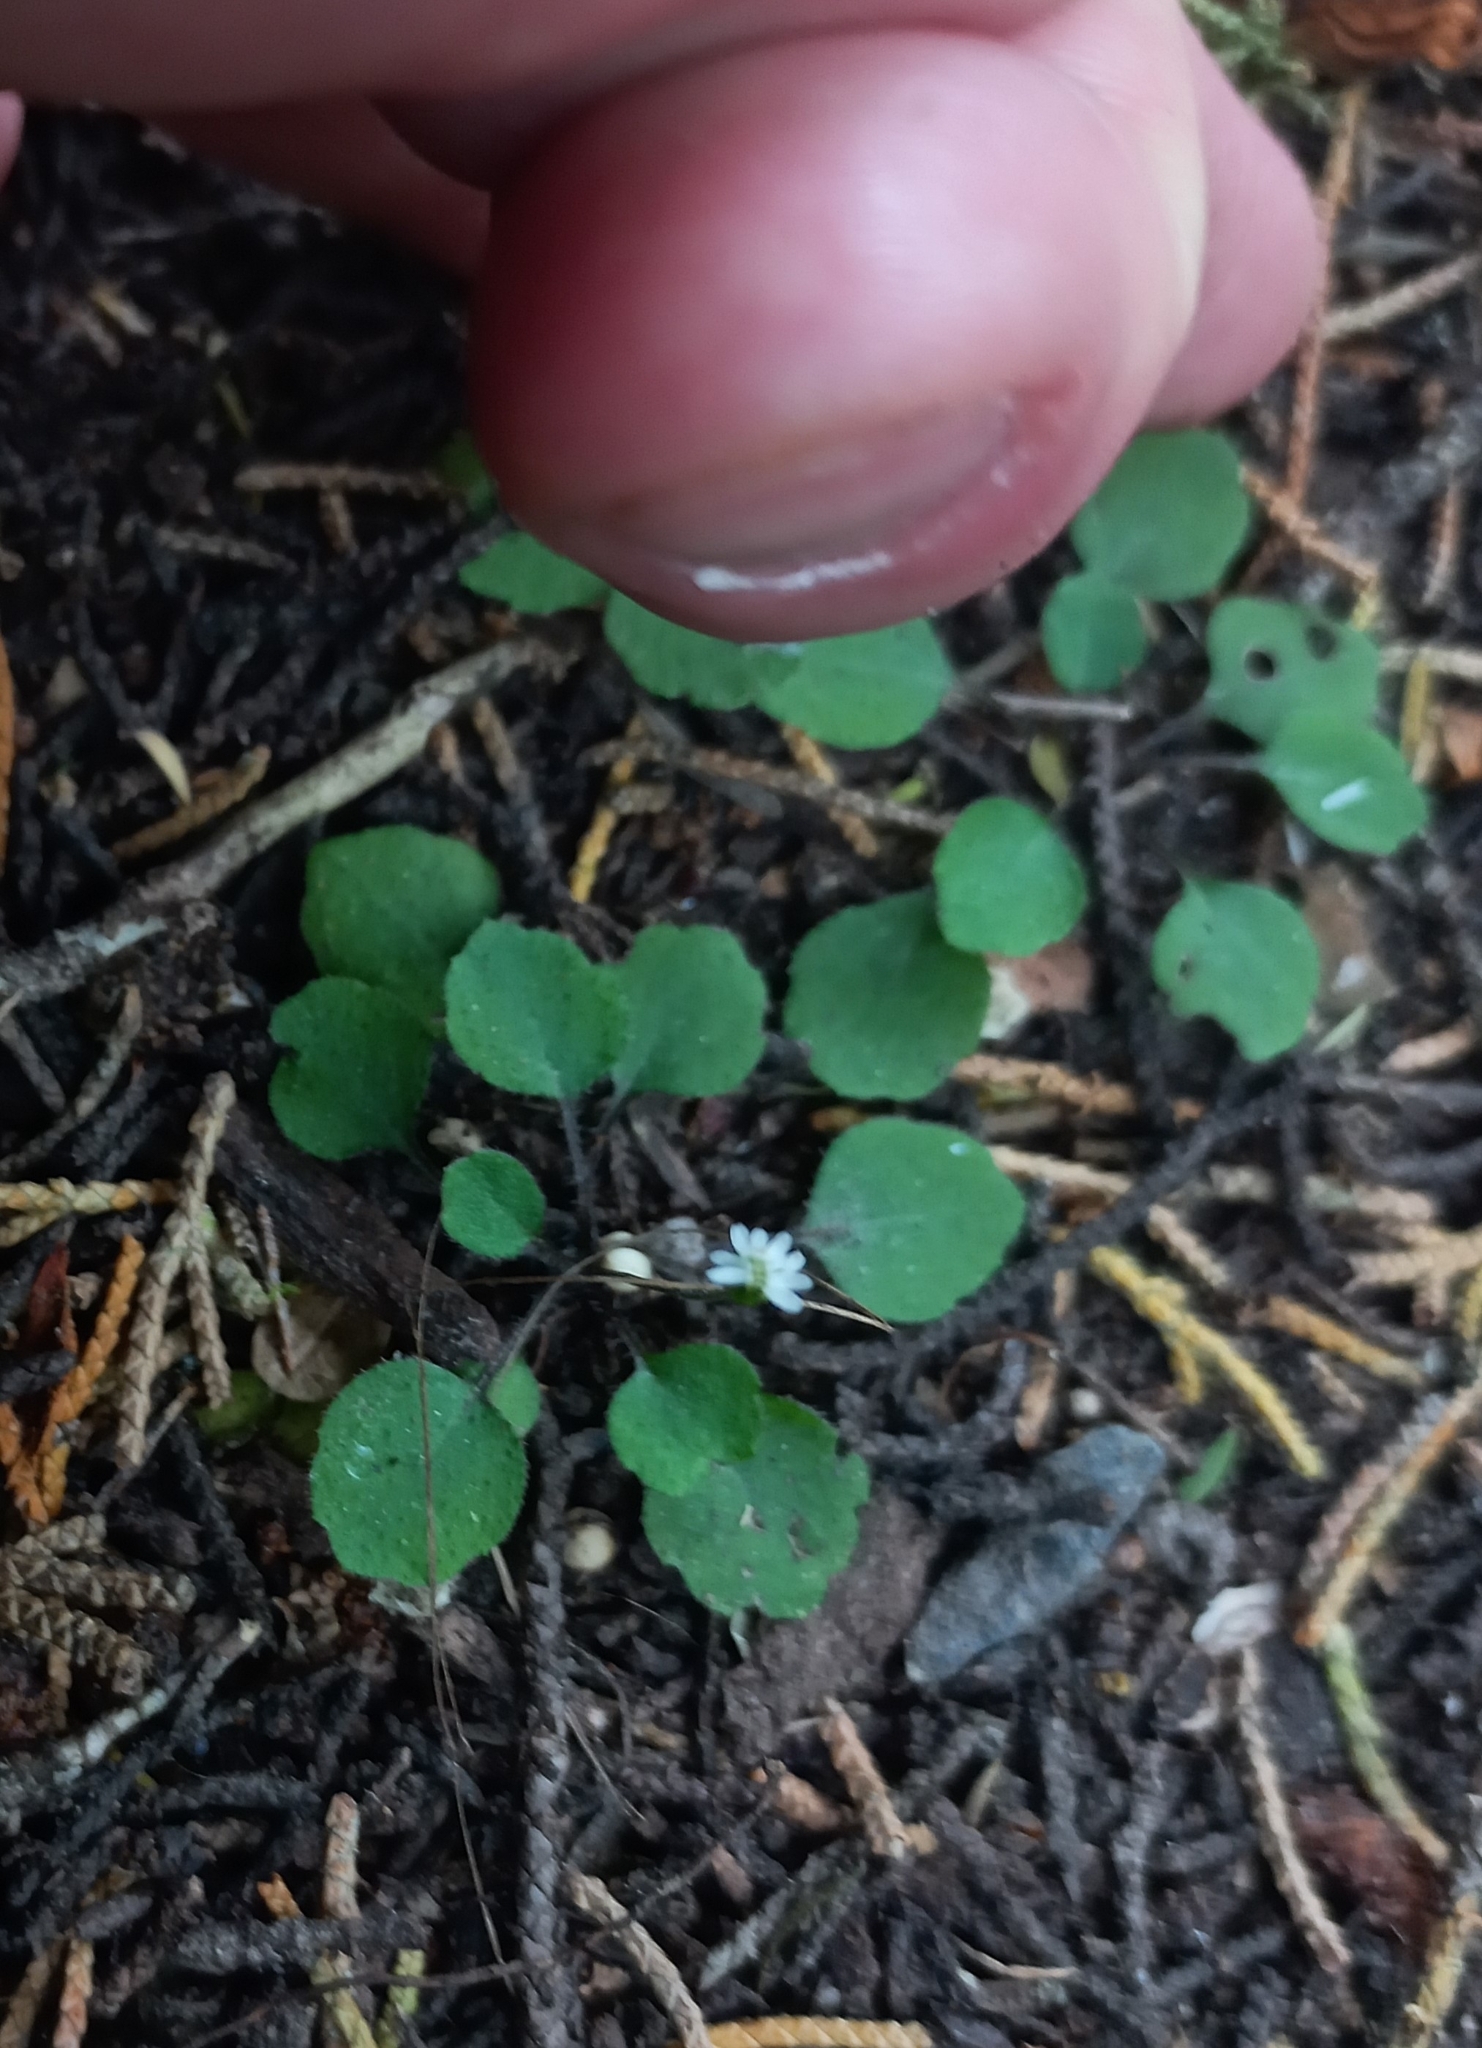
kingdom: Plantae
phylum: Tracheophyta
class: Magnoliopsida
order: Asterales
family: Asteraceae
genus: Lagenophora
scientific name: Lagenophora strangulata
